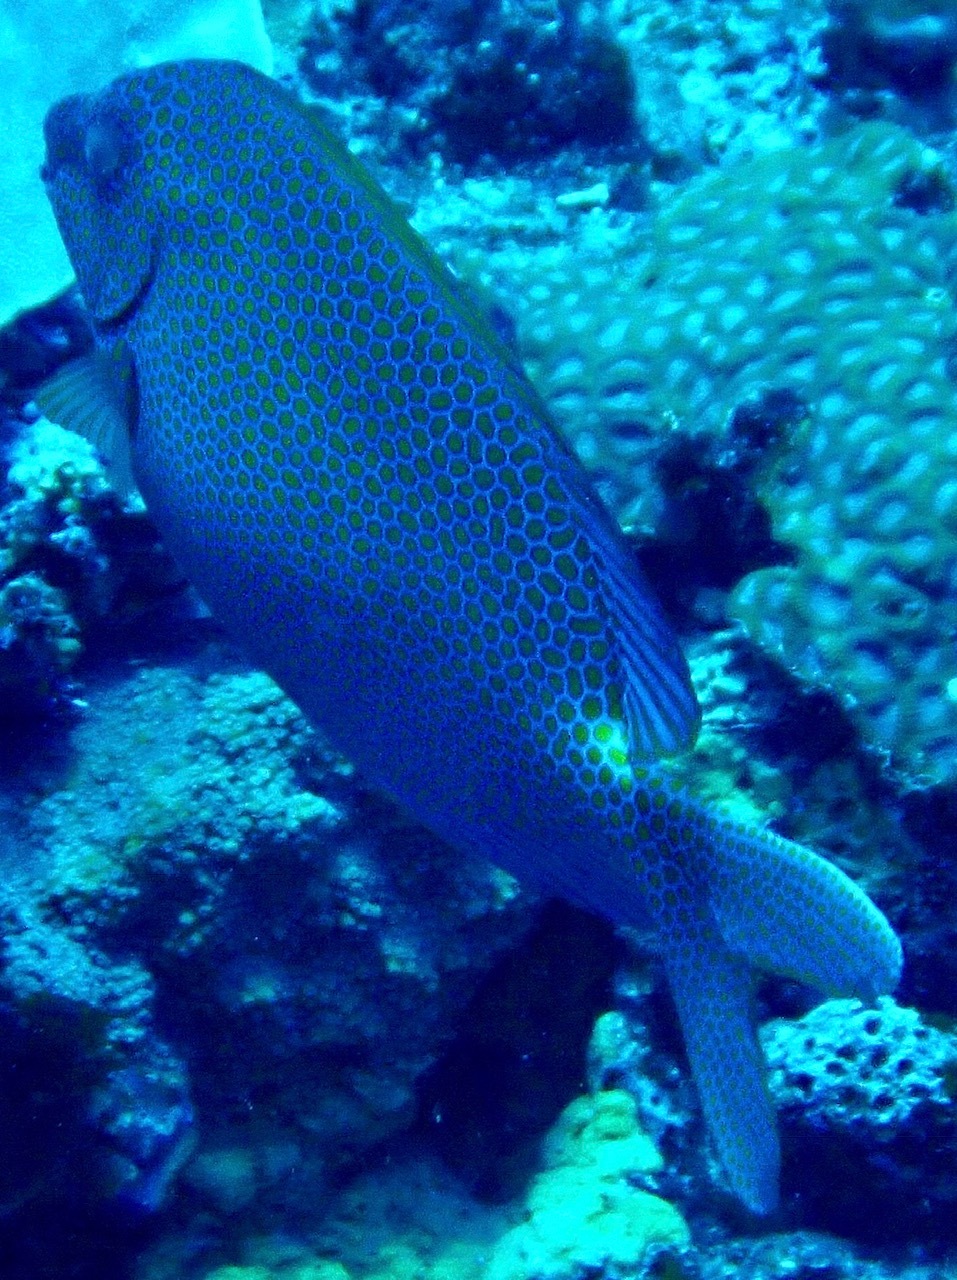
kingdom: Animalia
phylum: Chordata
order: Perciformes
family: Siganidae
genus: Siganus
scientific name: Siganus punctatus
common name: Gold-spotted rabbitfish
